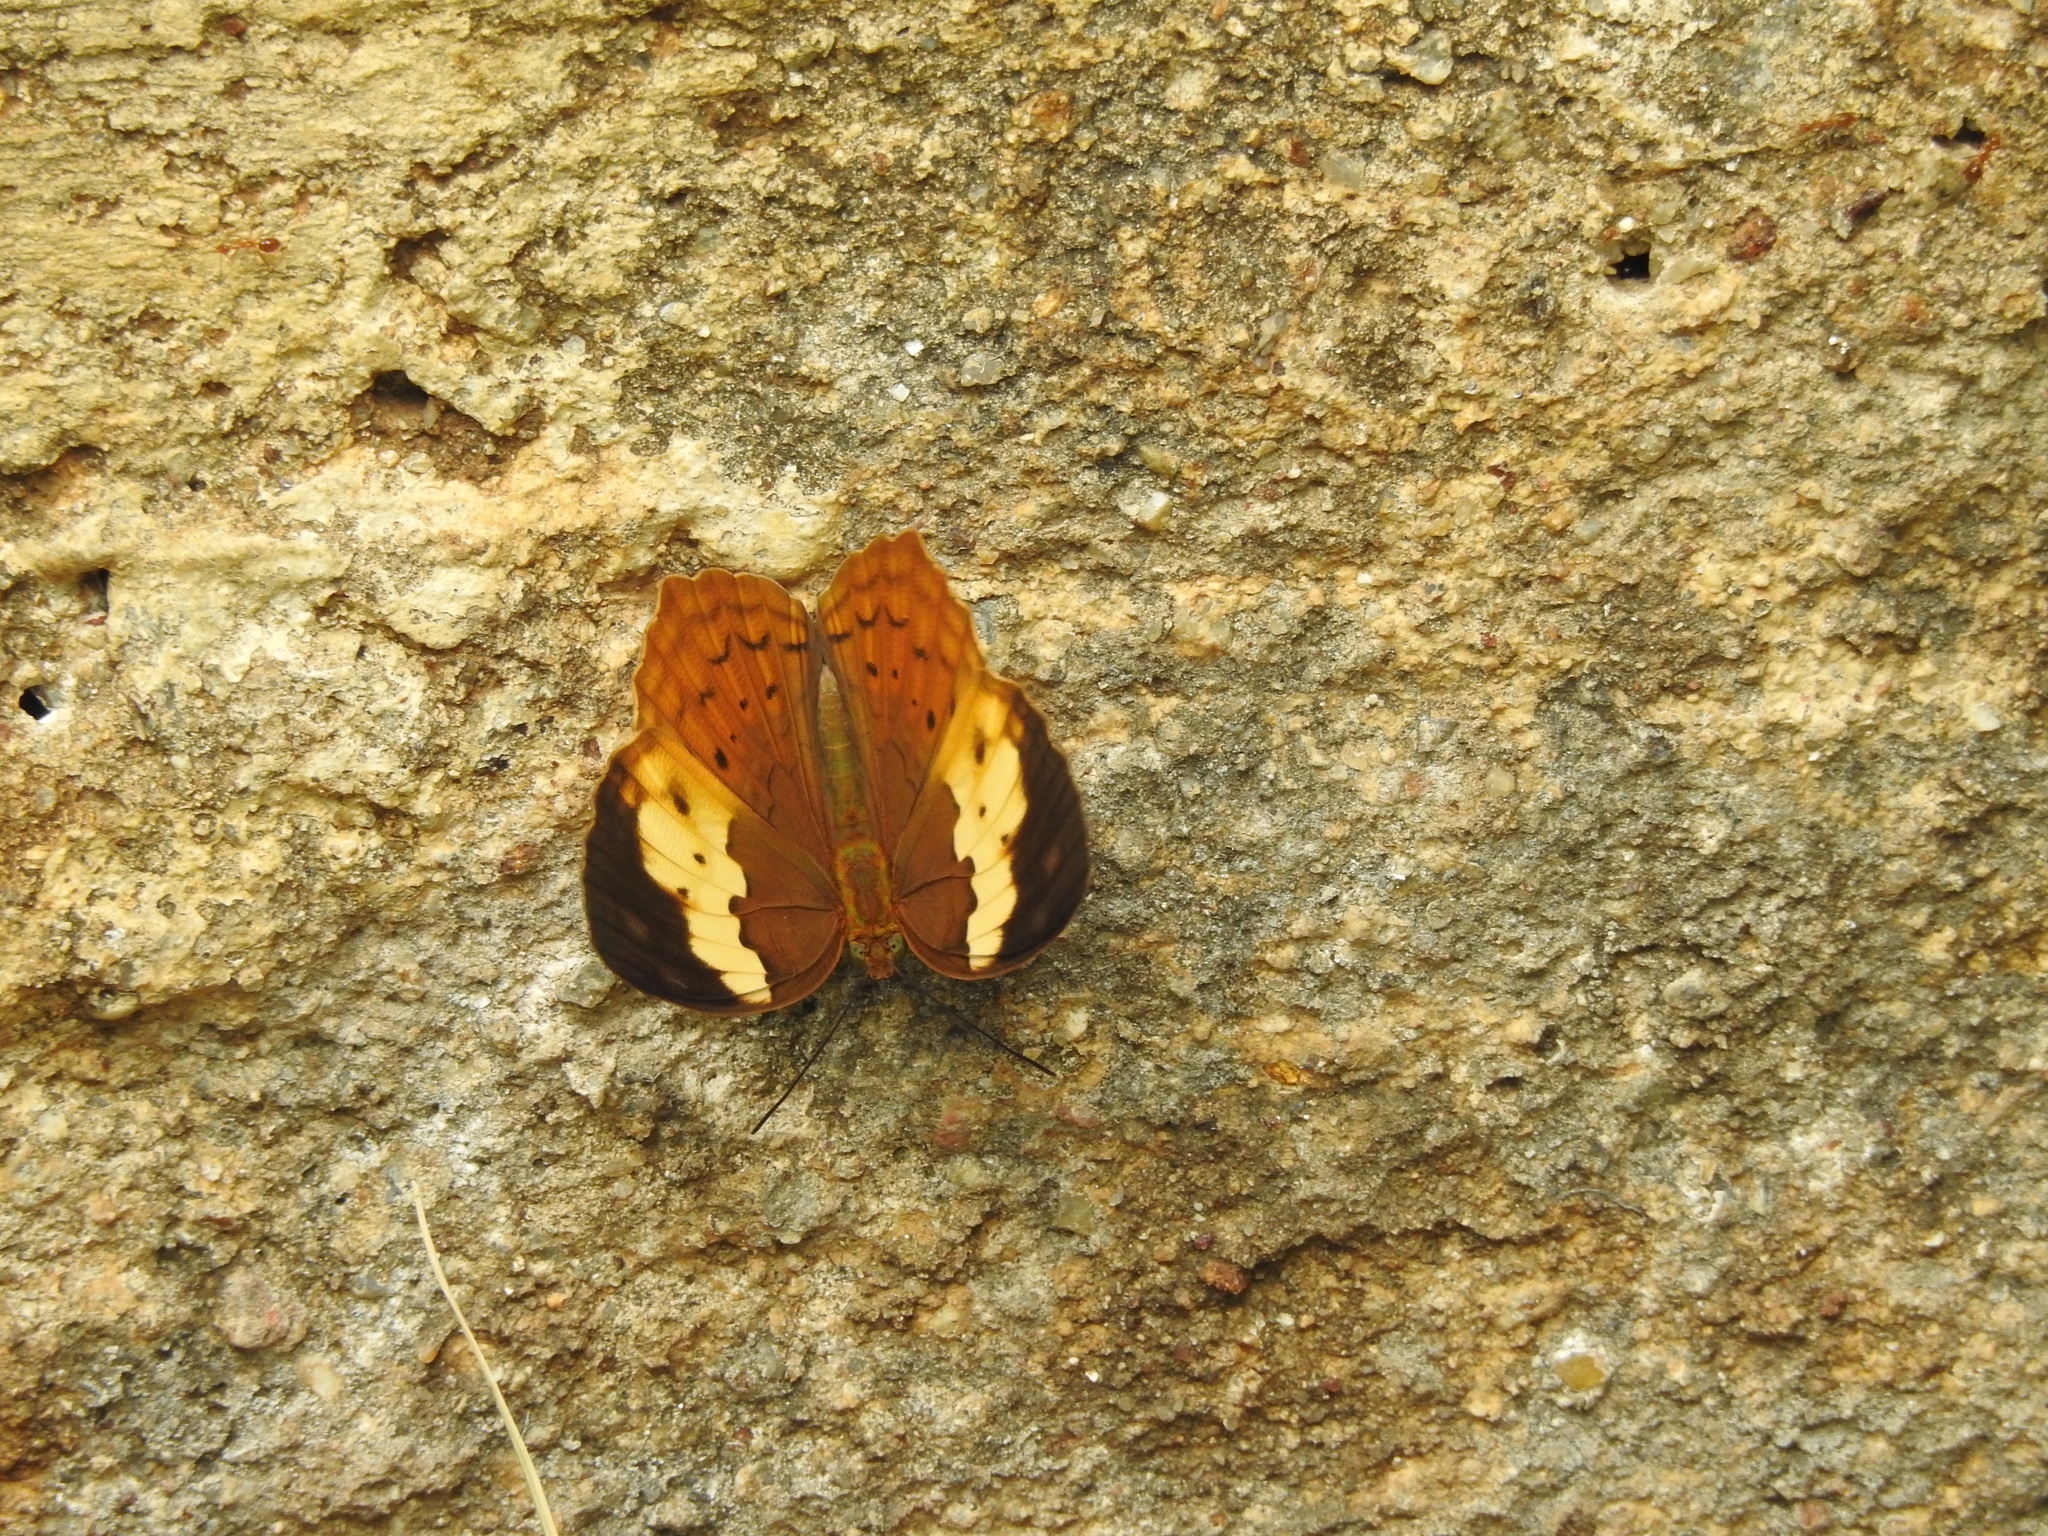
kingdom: Animalia
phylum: Arthropoda
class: Insecta
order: Lepidoptera
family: Nymphalidae
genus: Cupha
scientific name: Cupha erymanthis
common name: Rustic
